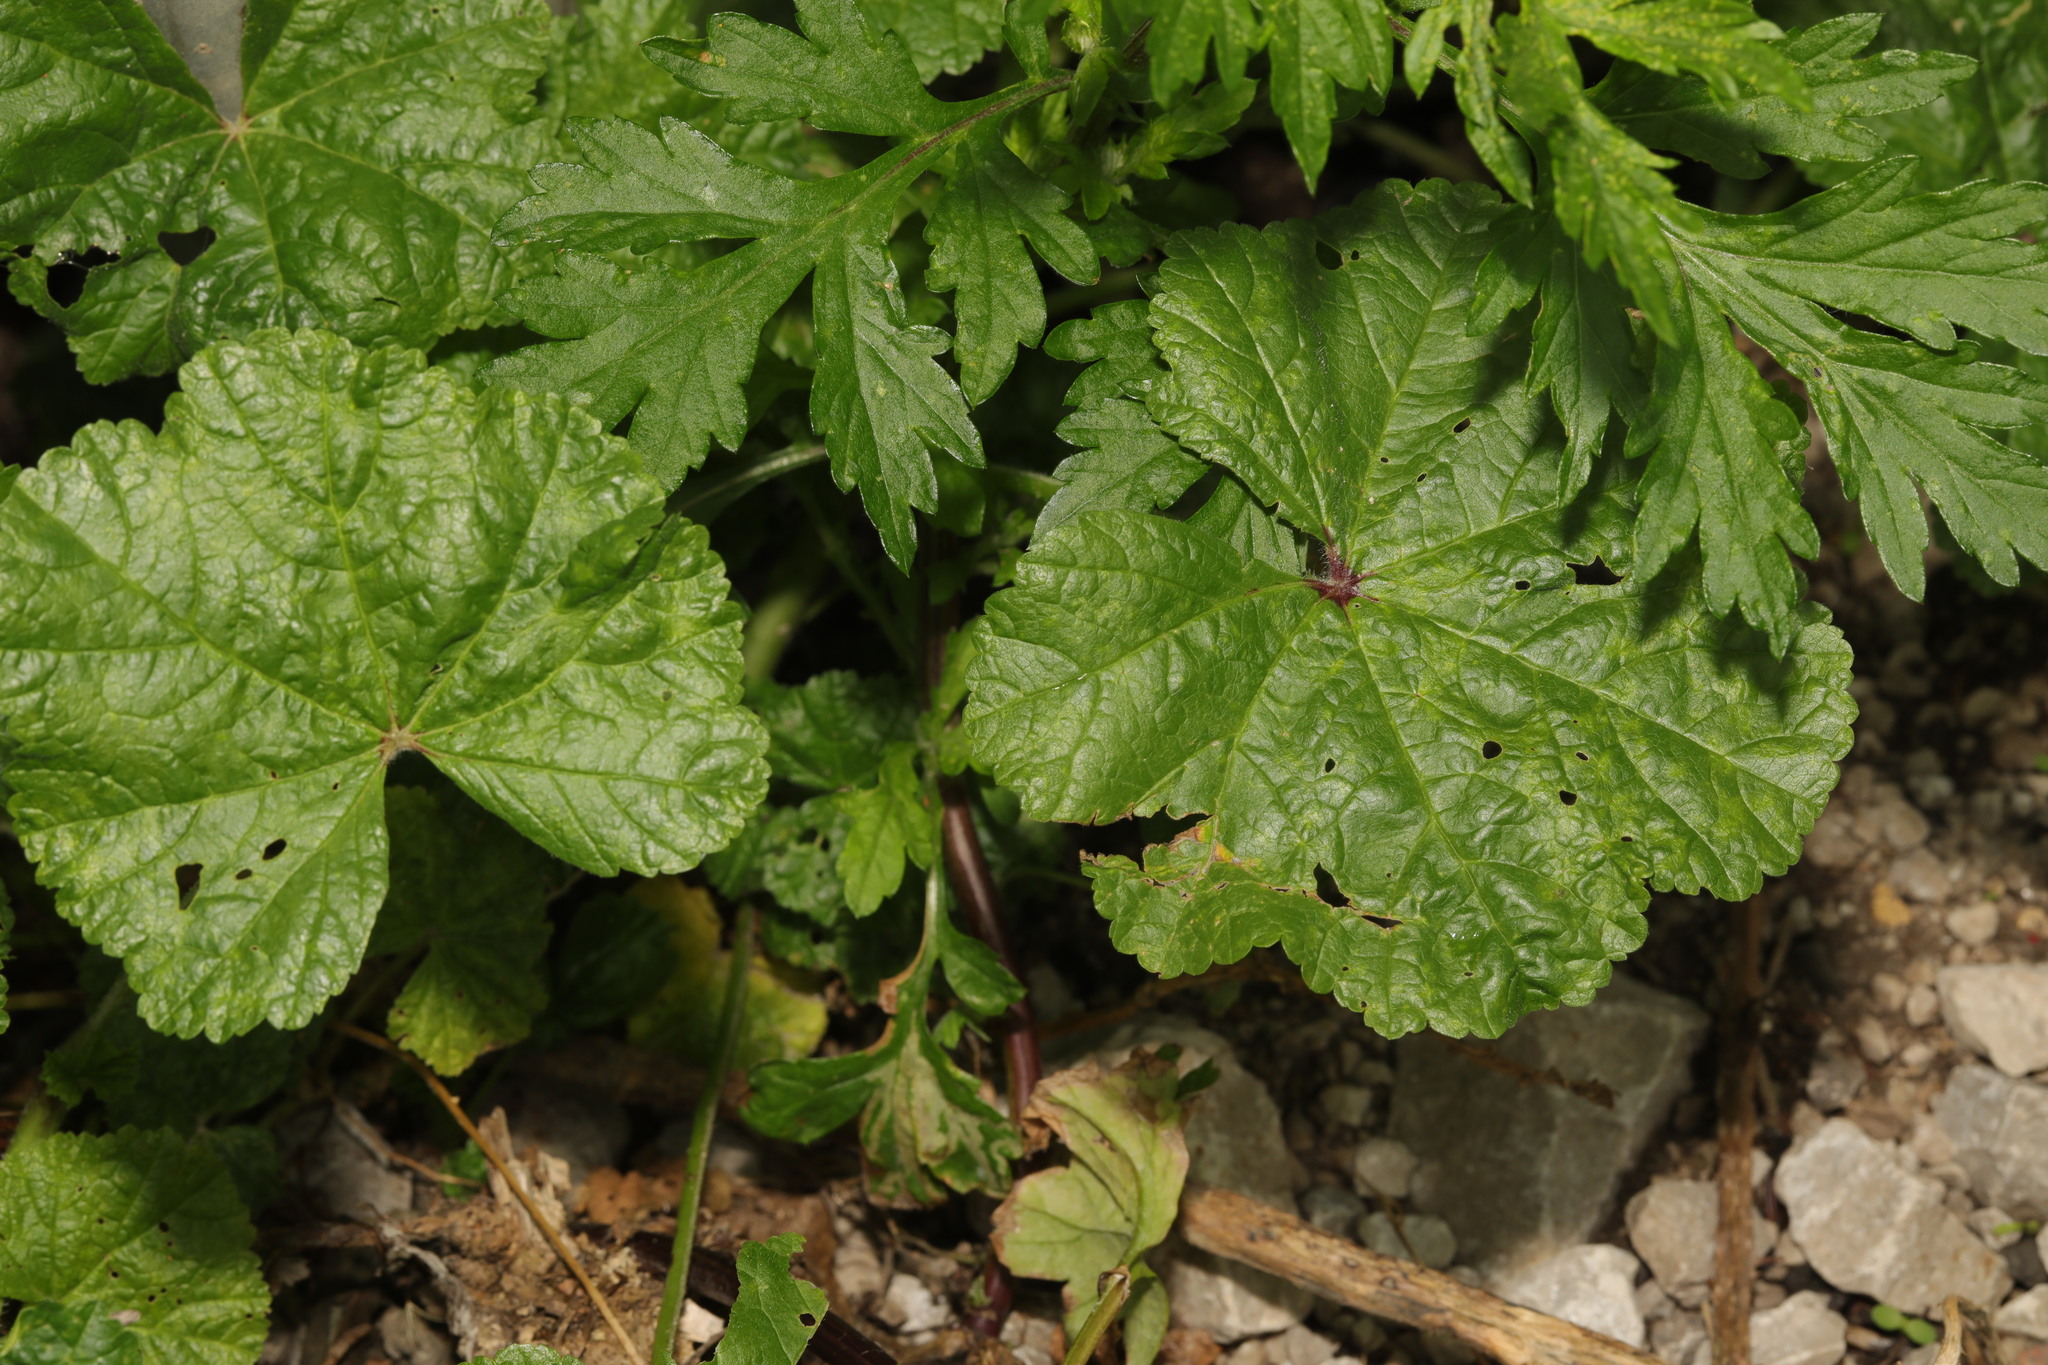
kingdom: Plantae
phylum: Tracheophyta
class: Magnoliopsida
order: Malvales
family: Malvaceae
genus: Malva
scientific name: Malva sylvestris
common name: Common mallow
